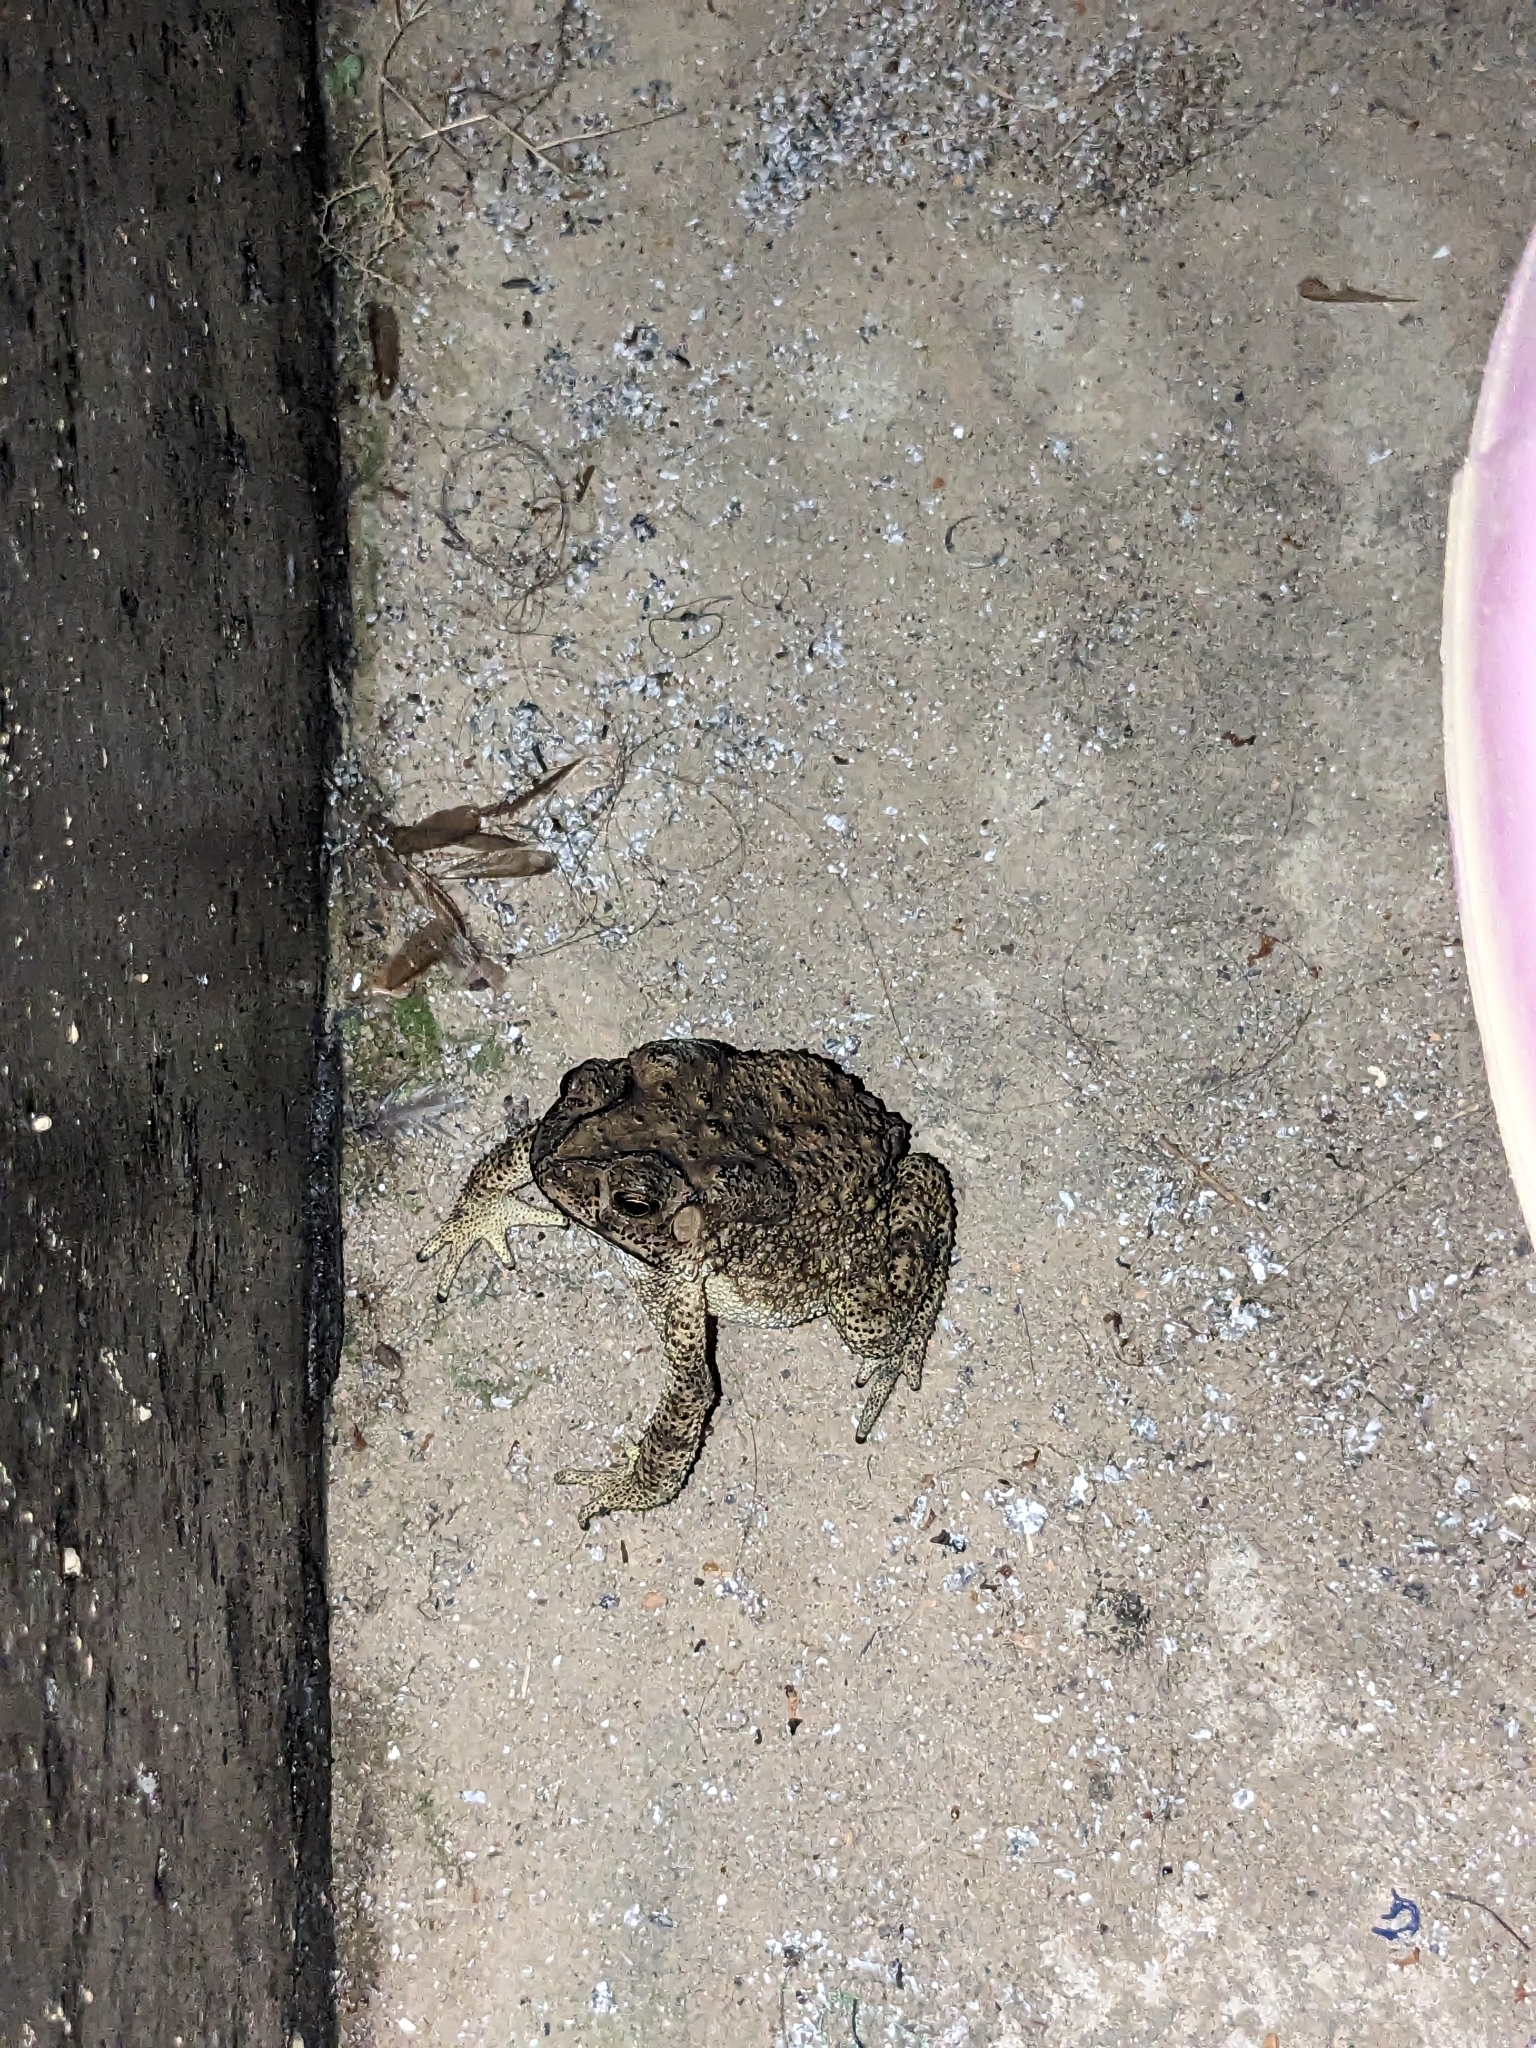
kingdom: Animalia
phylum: Chordata
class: Amphibia
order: Anura
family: Bufonidae
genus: Duttaphrynus
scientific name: Duttaphrynus melanostictus
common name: Common sunda toad
